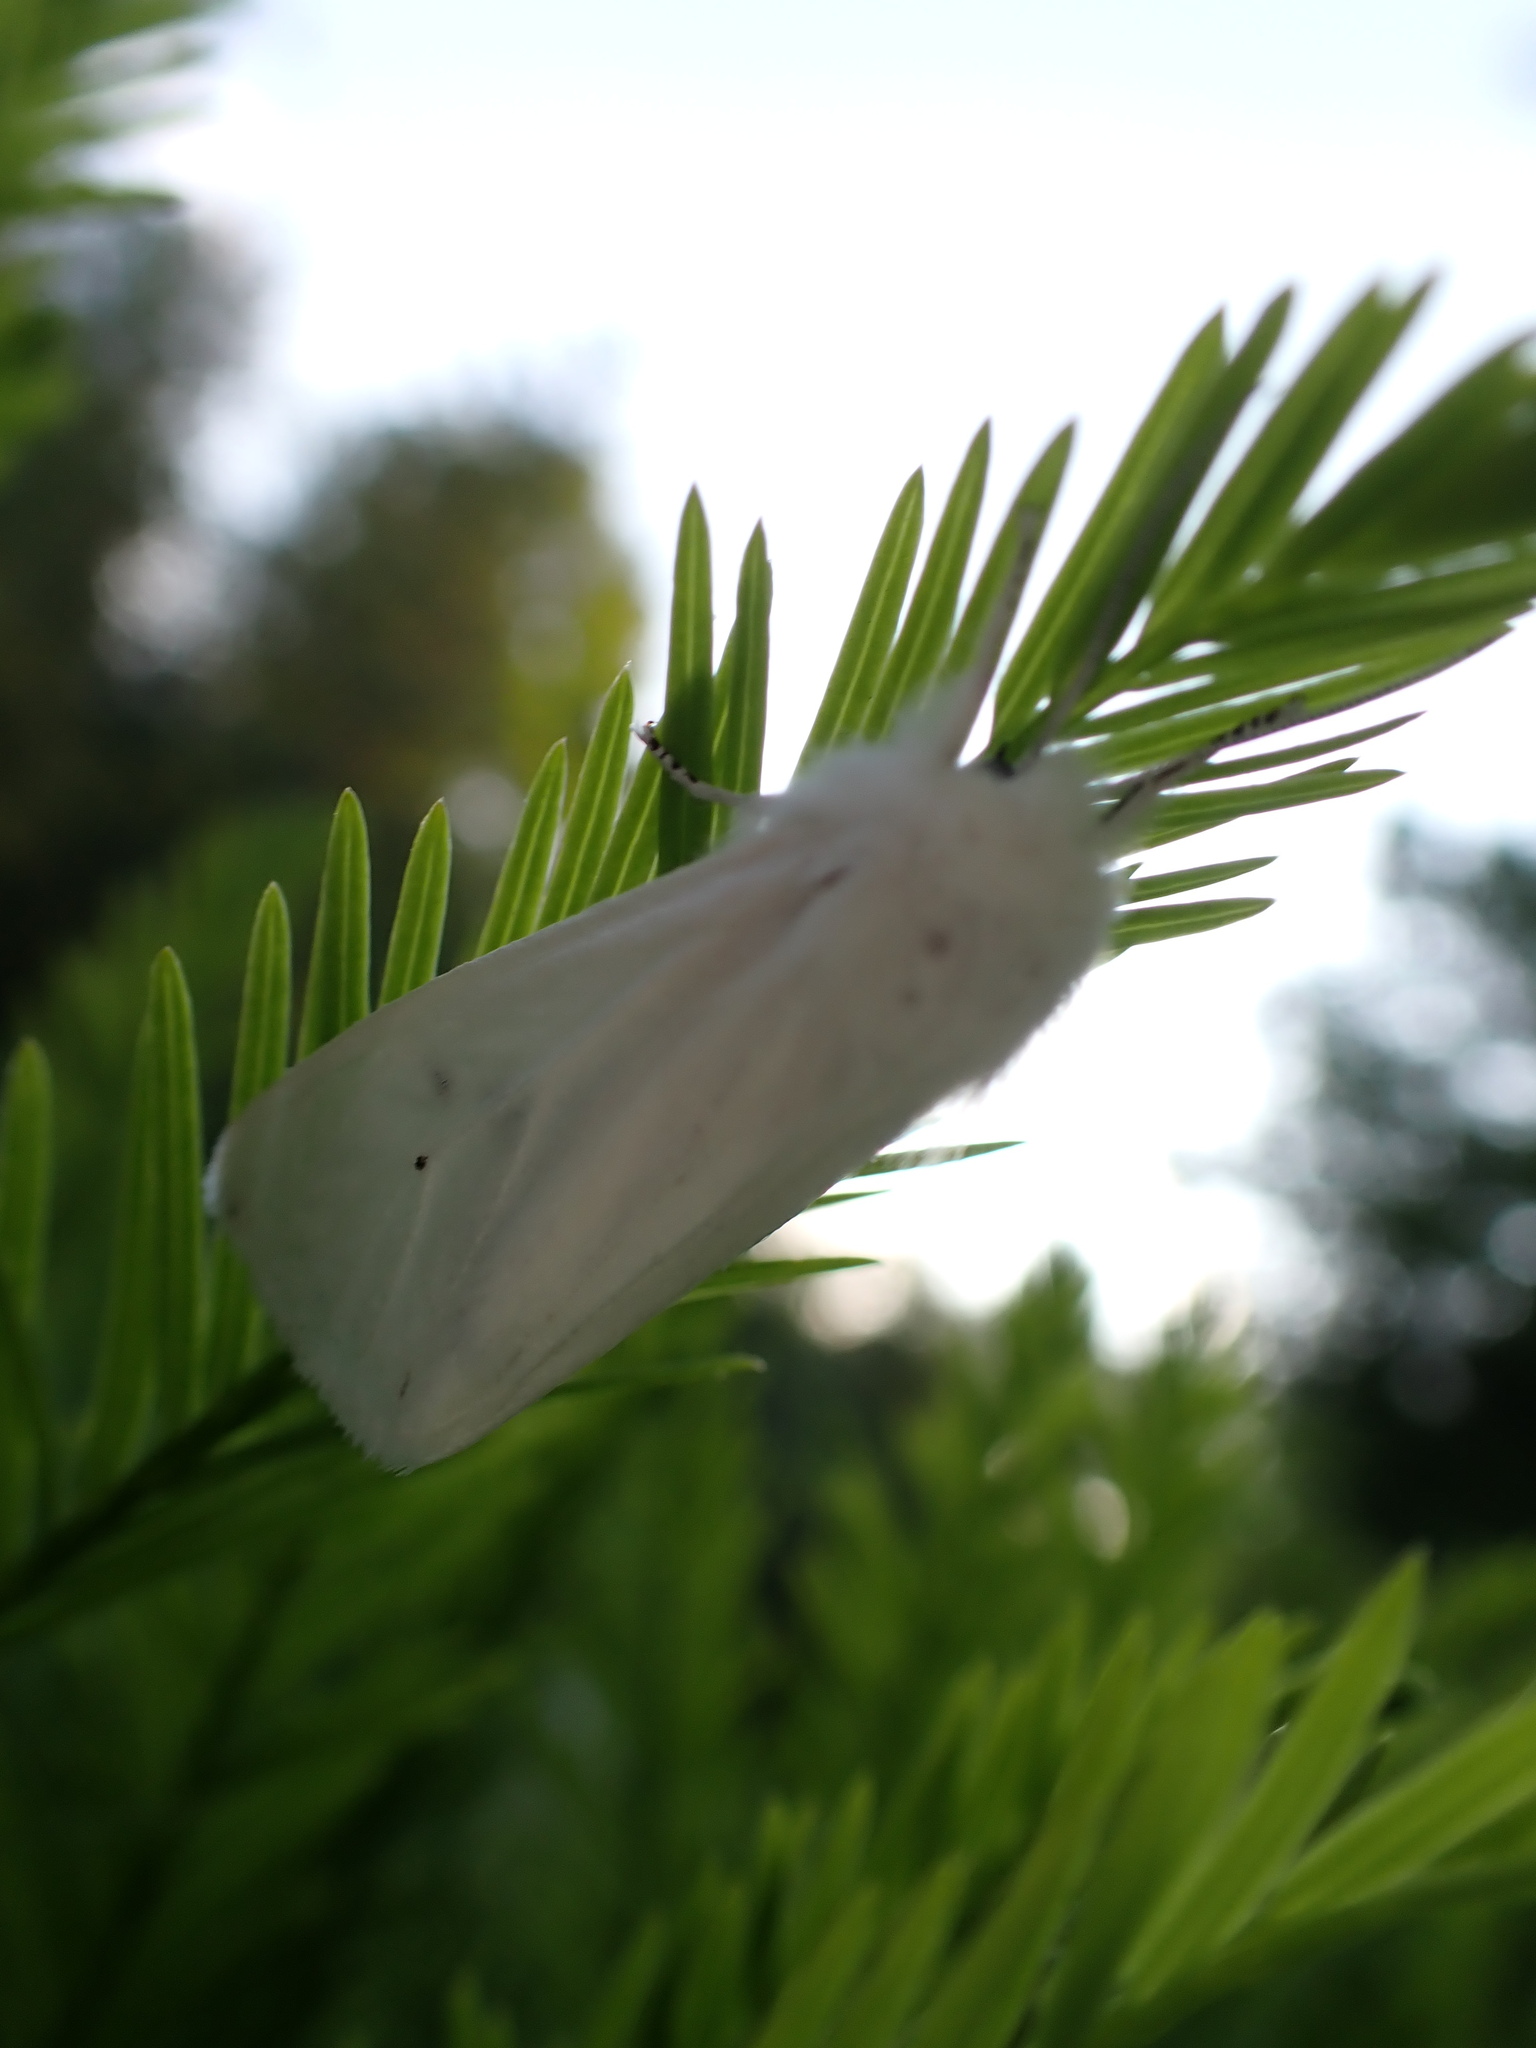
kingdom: Animalia
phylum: Arthropoda
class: Insecta
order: Lepidoptera
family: Erebidae
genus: Spilosoma
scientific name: Spilosoma virginica
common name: Virginia tiger moth
